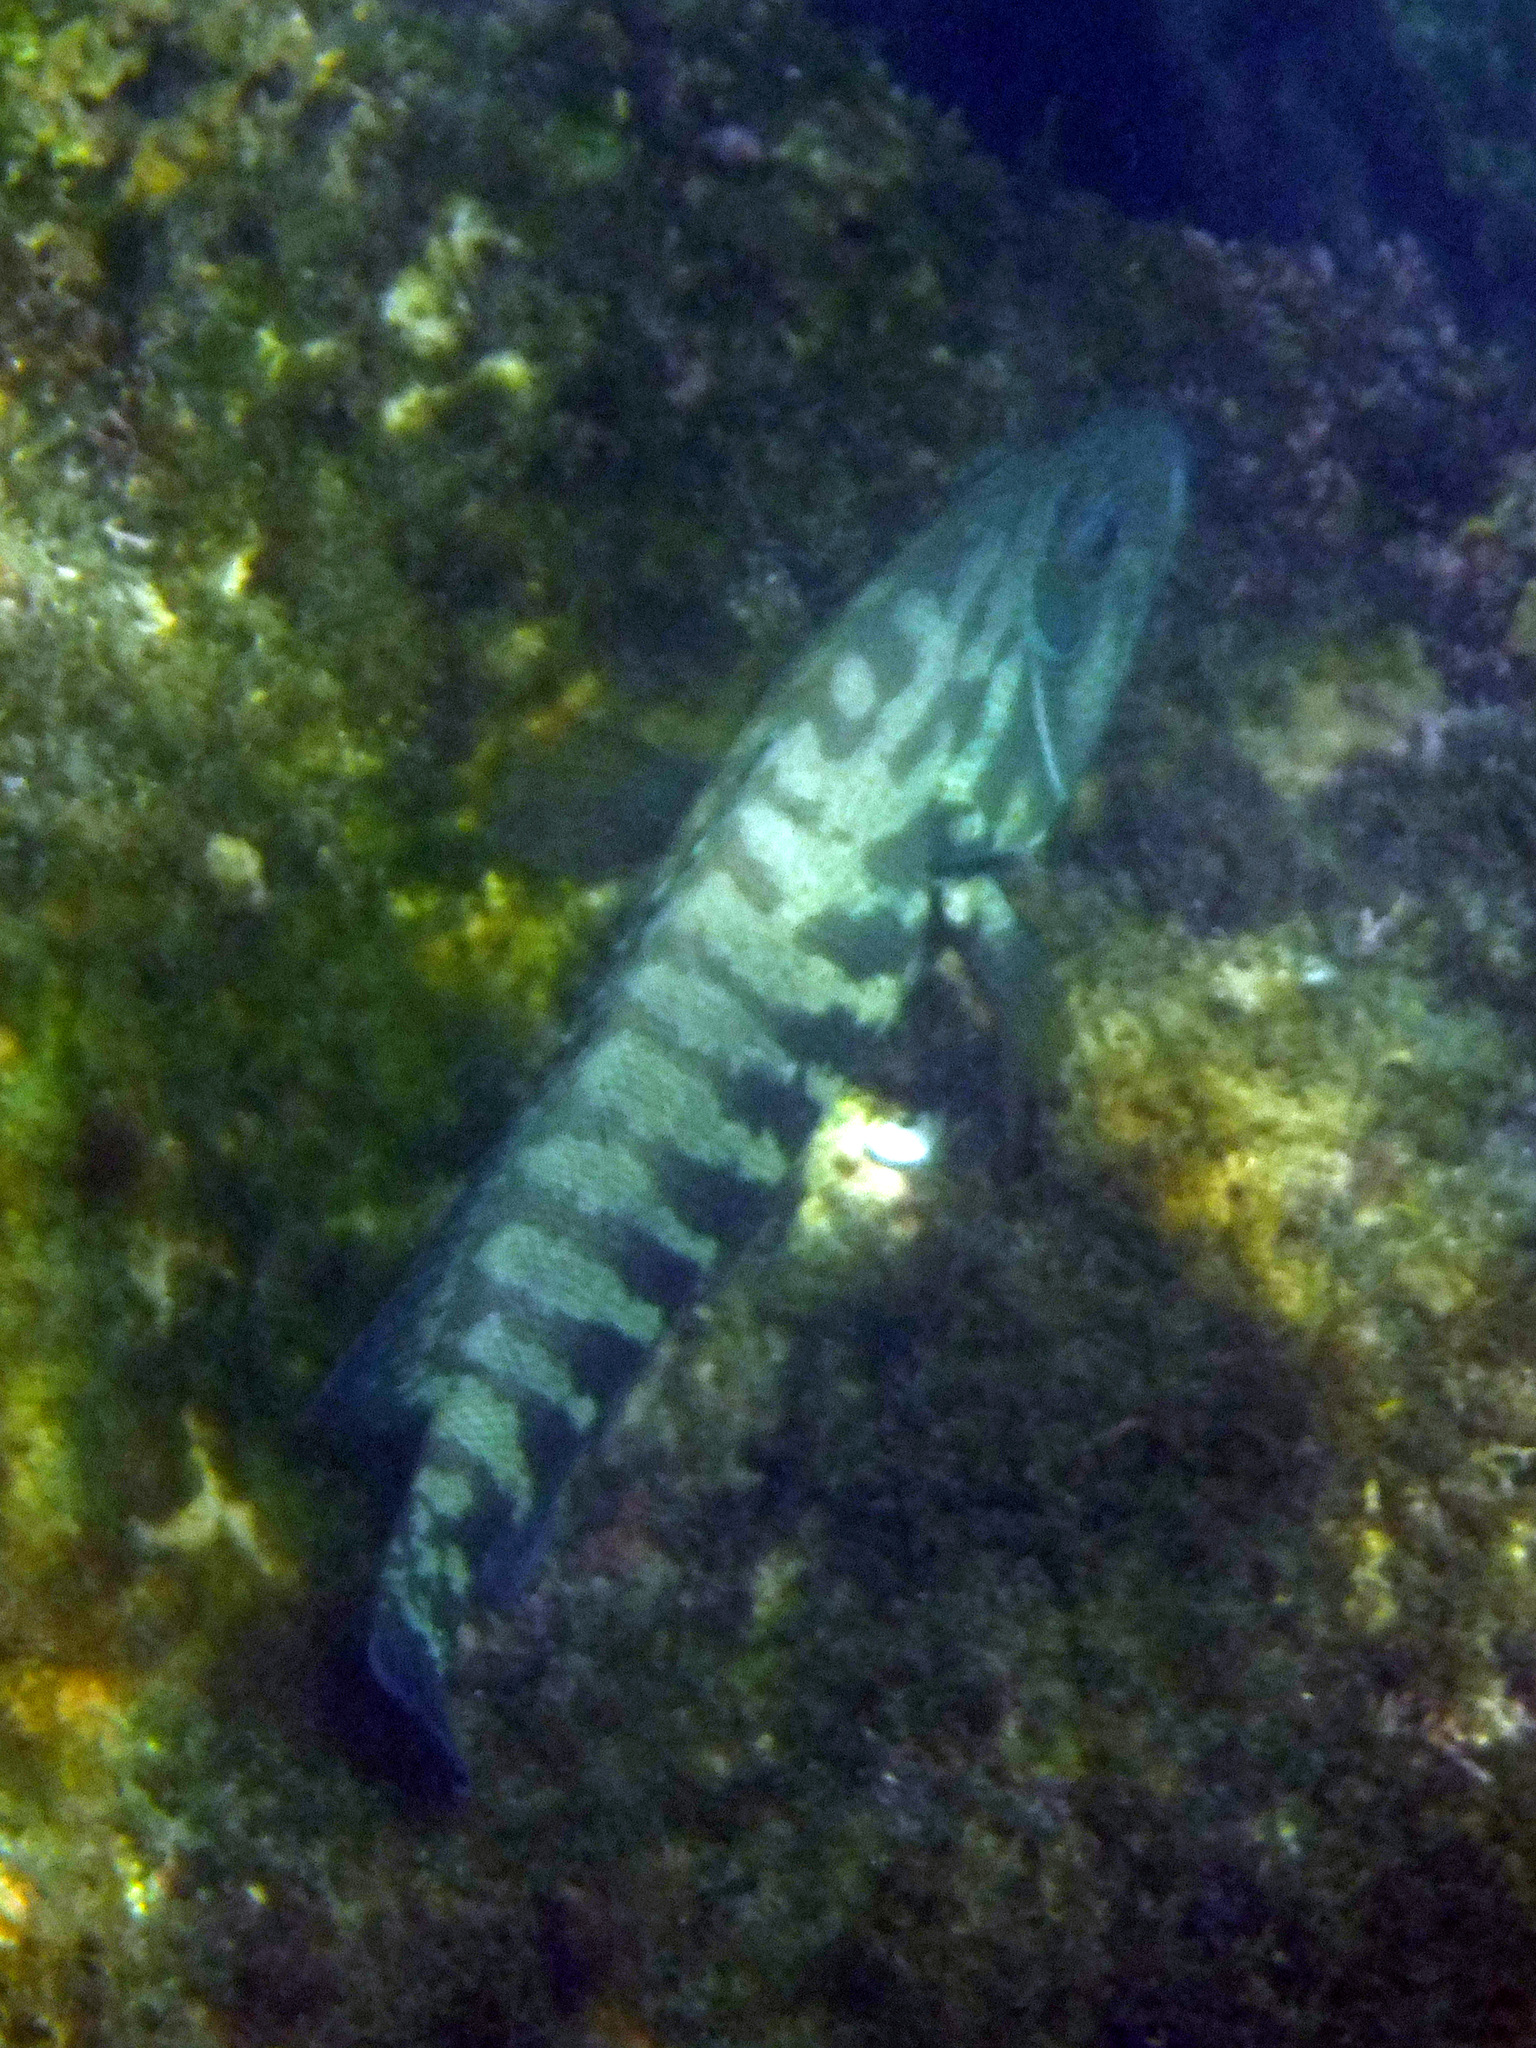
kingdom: Animalia
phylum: Chordata
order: Perciformes
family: Serranidae
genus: Cephalopholis
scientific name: Cephalopholis panamensis
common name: Pacific graysby
